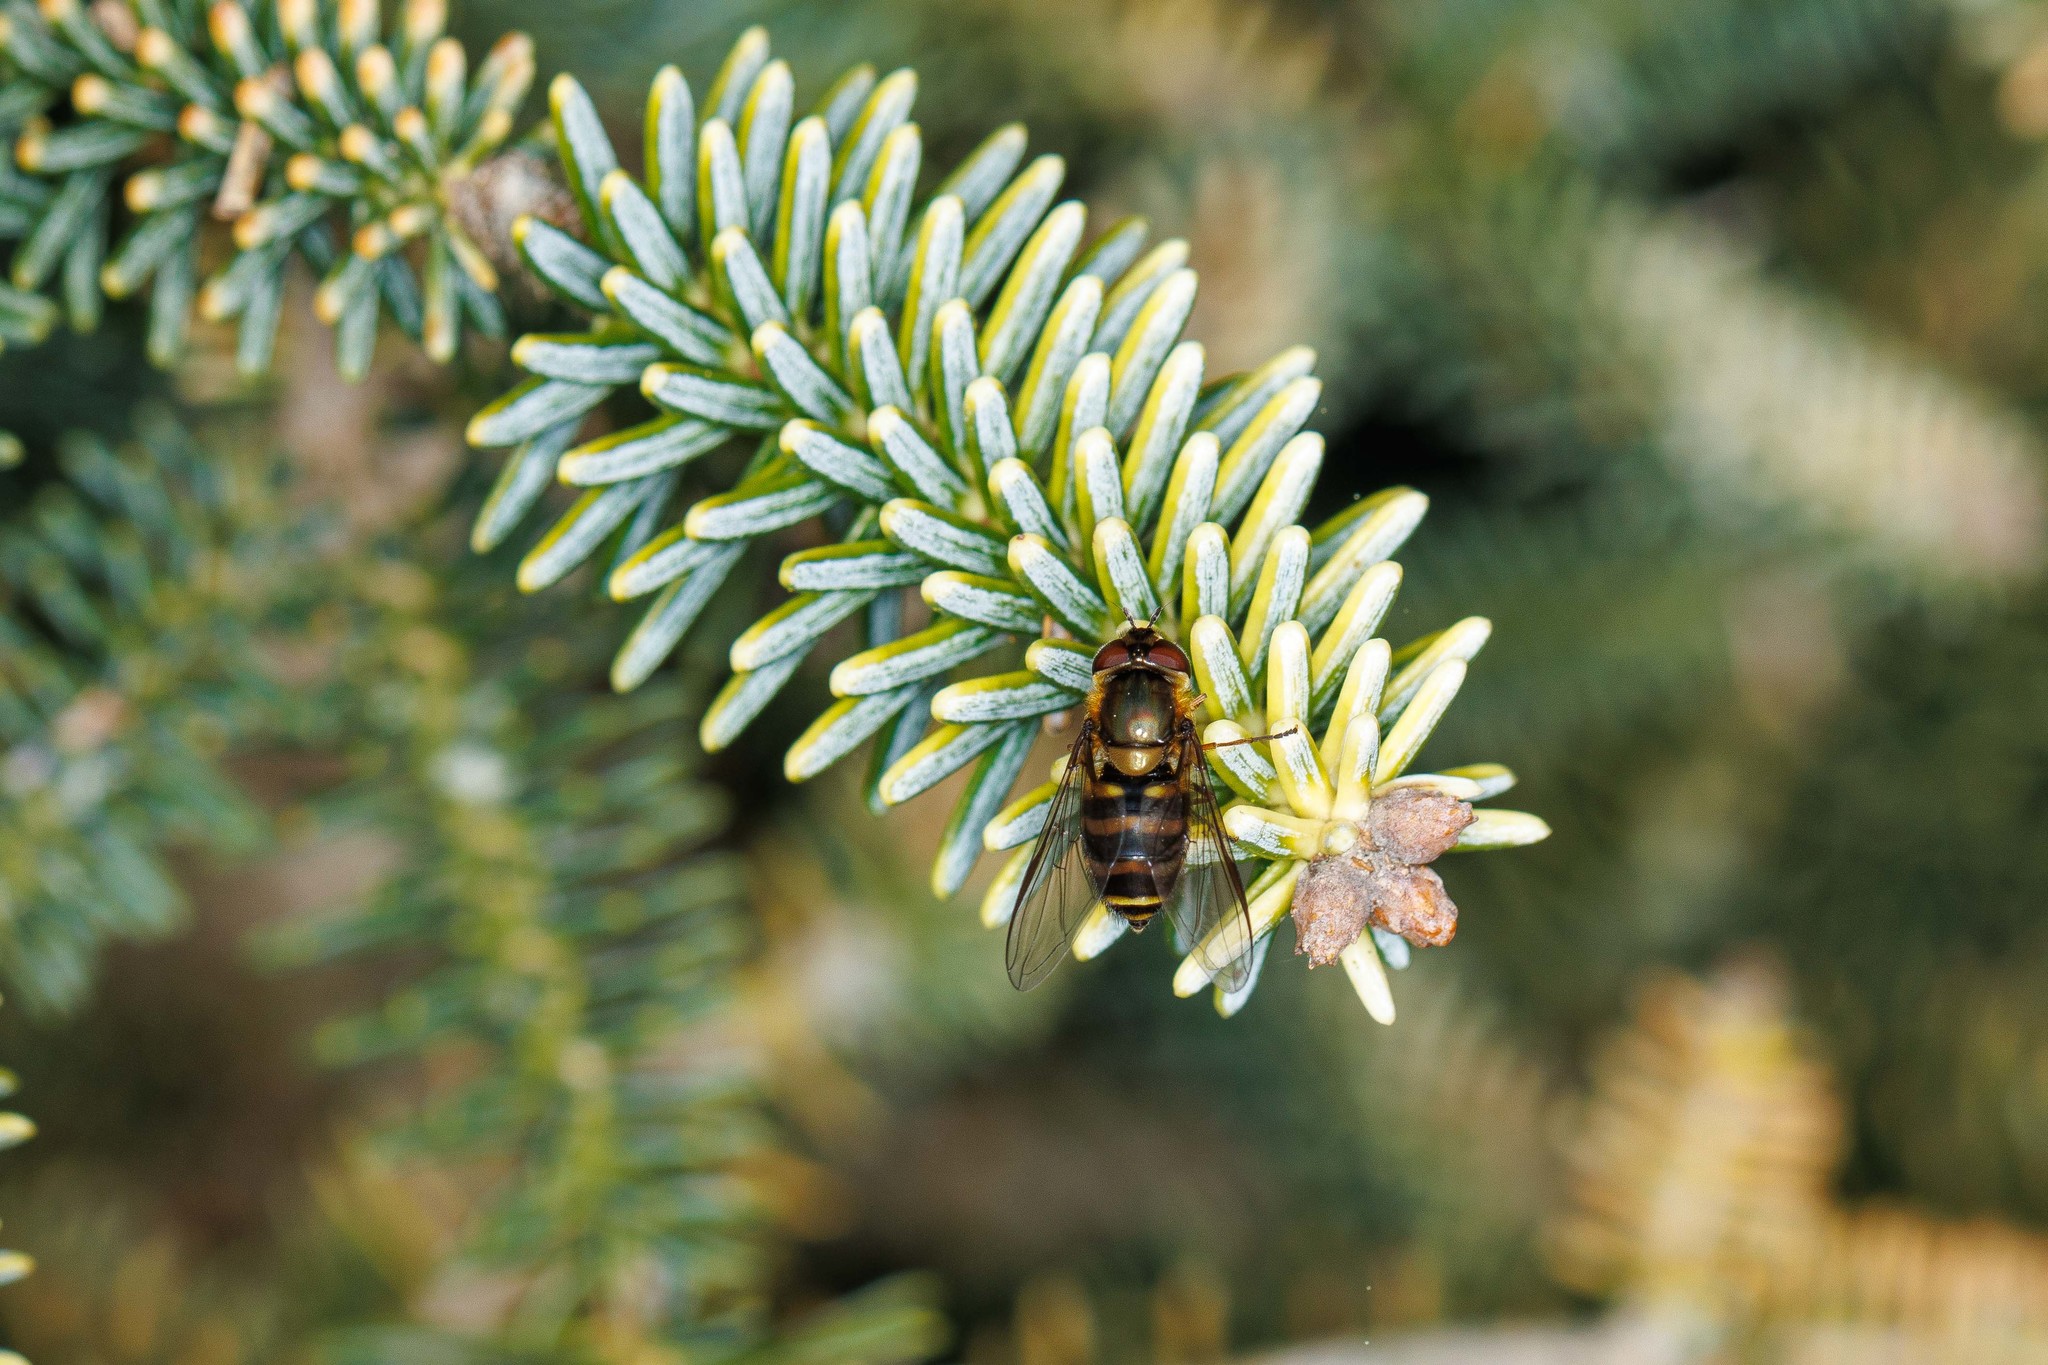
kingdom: Animalia
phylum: Arthropoda
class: Insecta
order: Diptera
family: Syrphidae
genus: Syrphus
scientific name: Syrphus torvus
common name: Hairy-eyed flower fly
